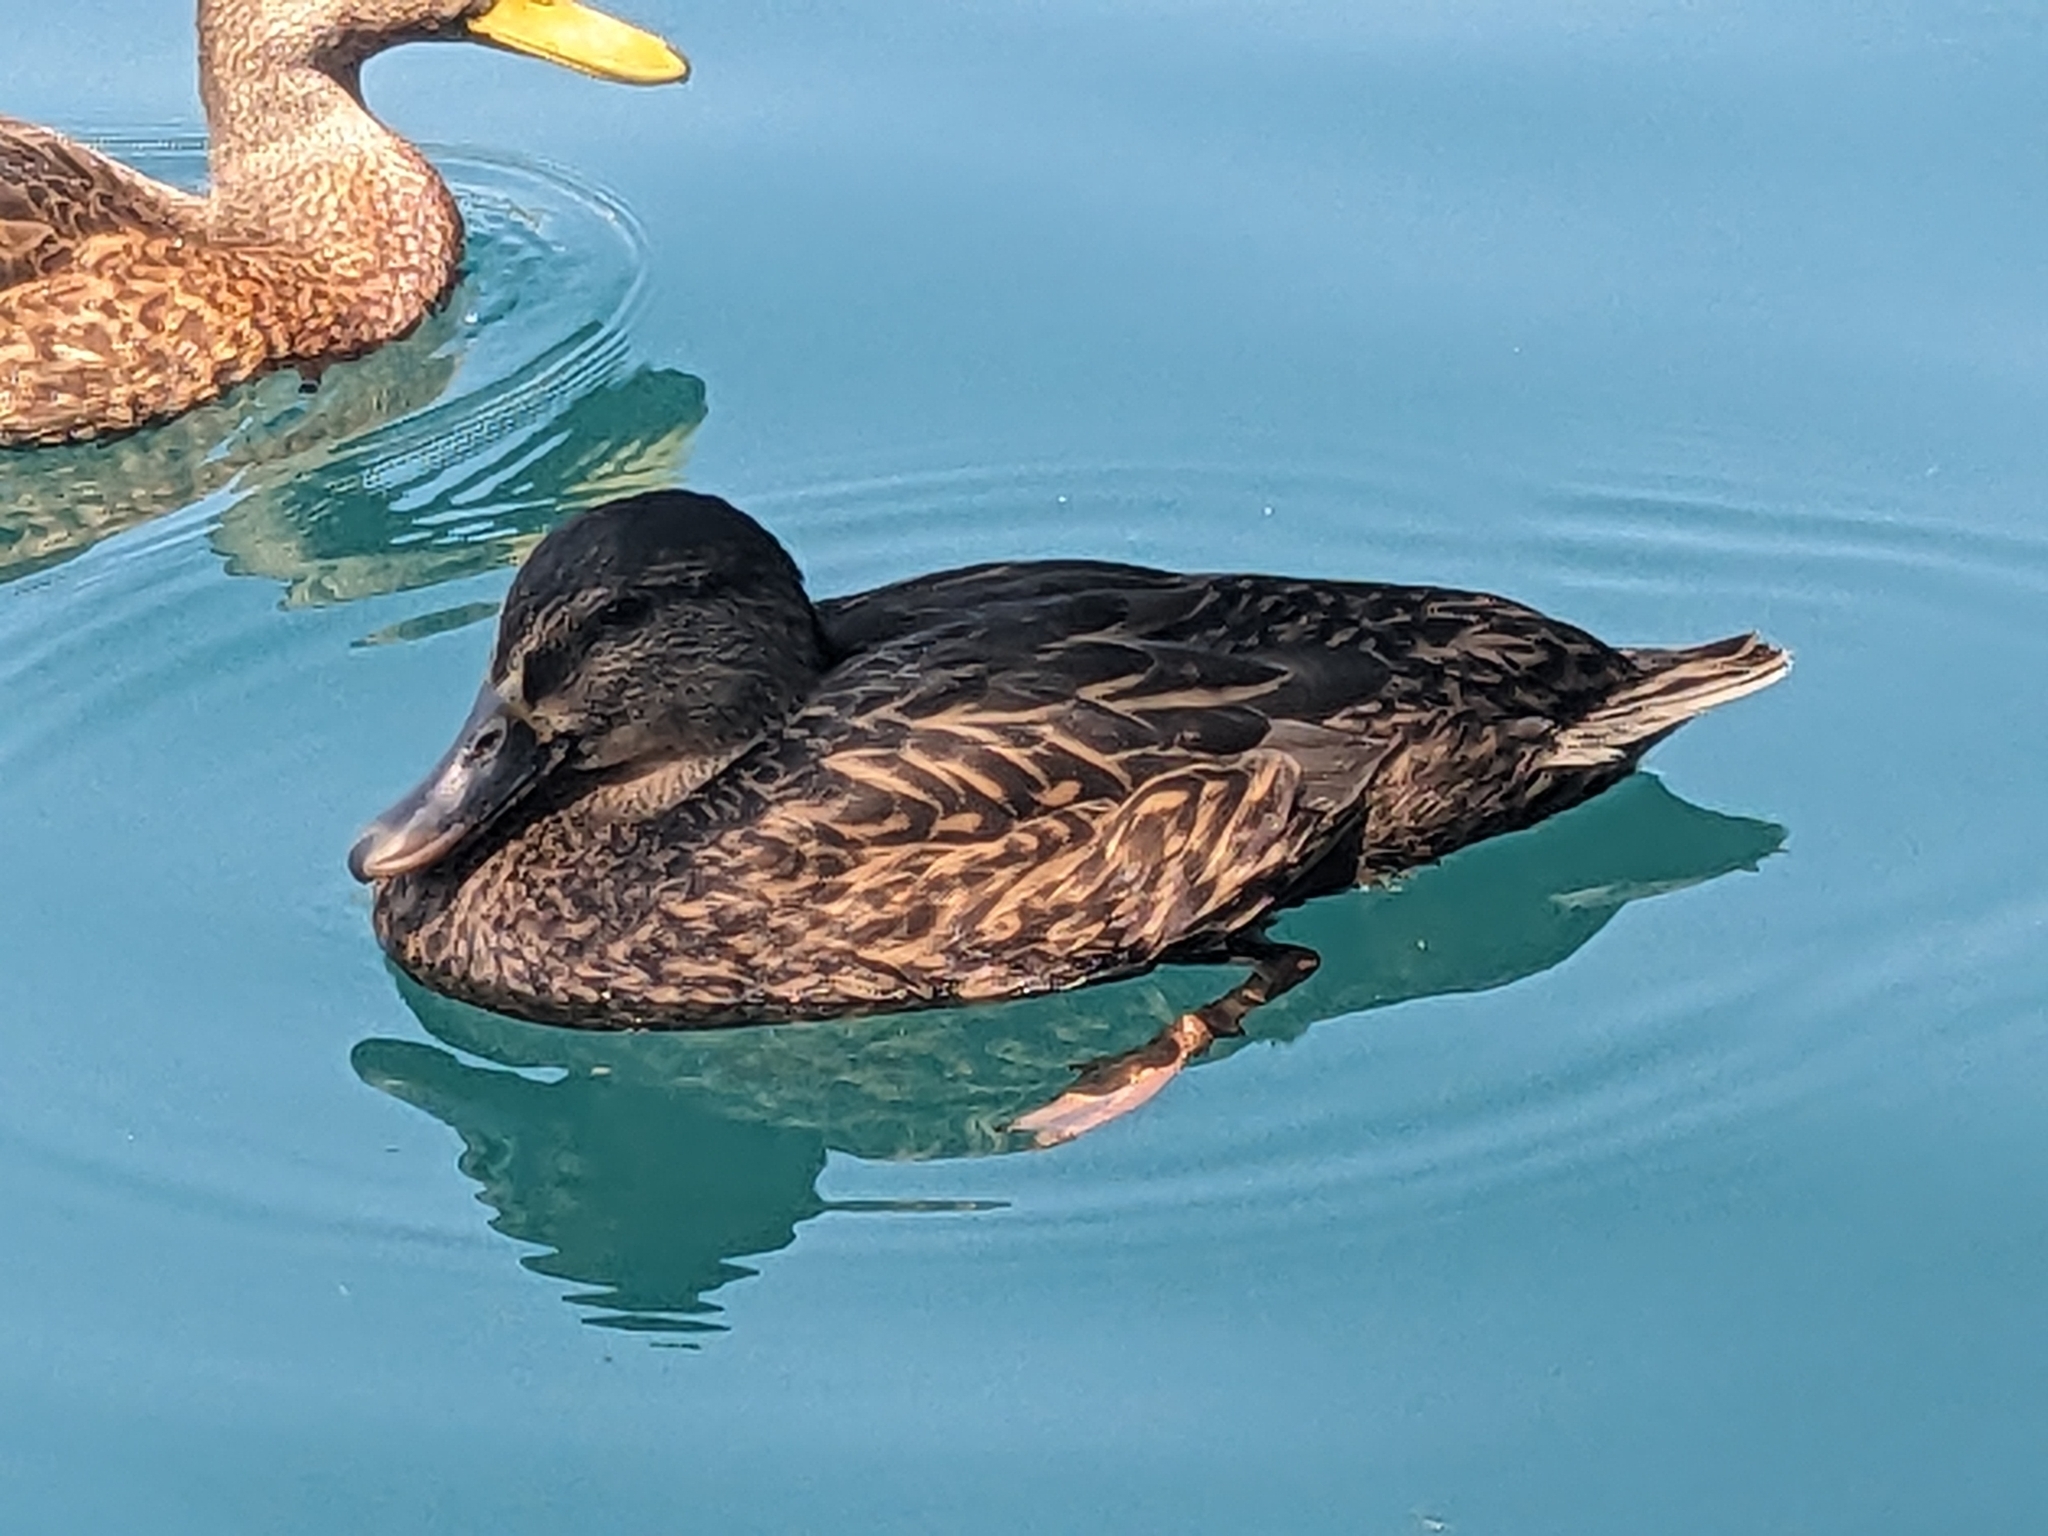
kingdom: Animalia
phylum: Chordata
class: Aves
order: Anseriformes
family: Anatidae
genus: Anas
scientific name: Anas platyrhynchos
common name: Mallard
